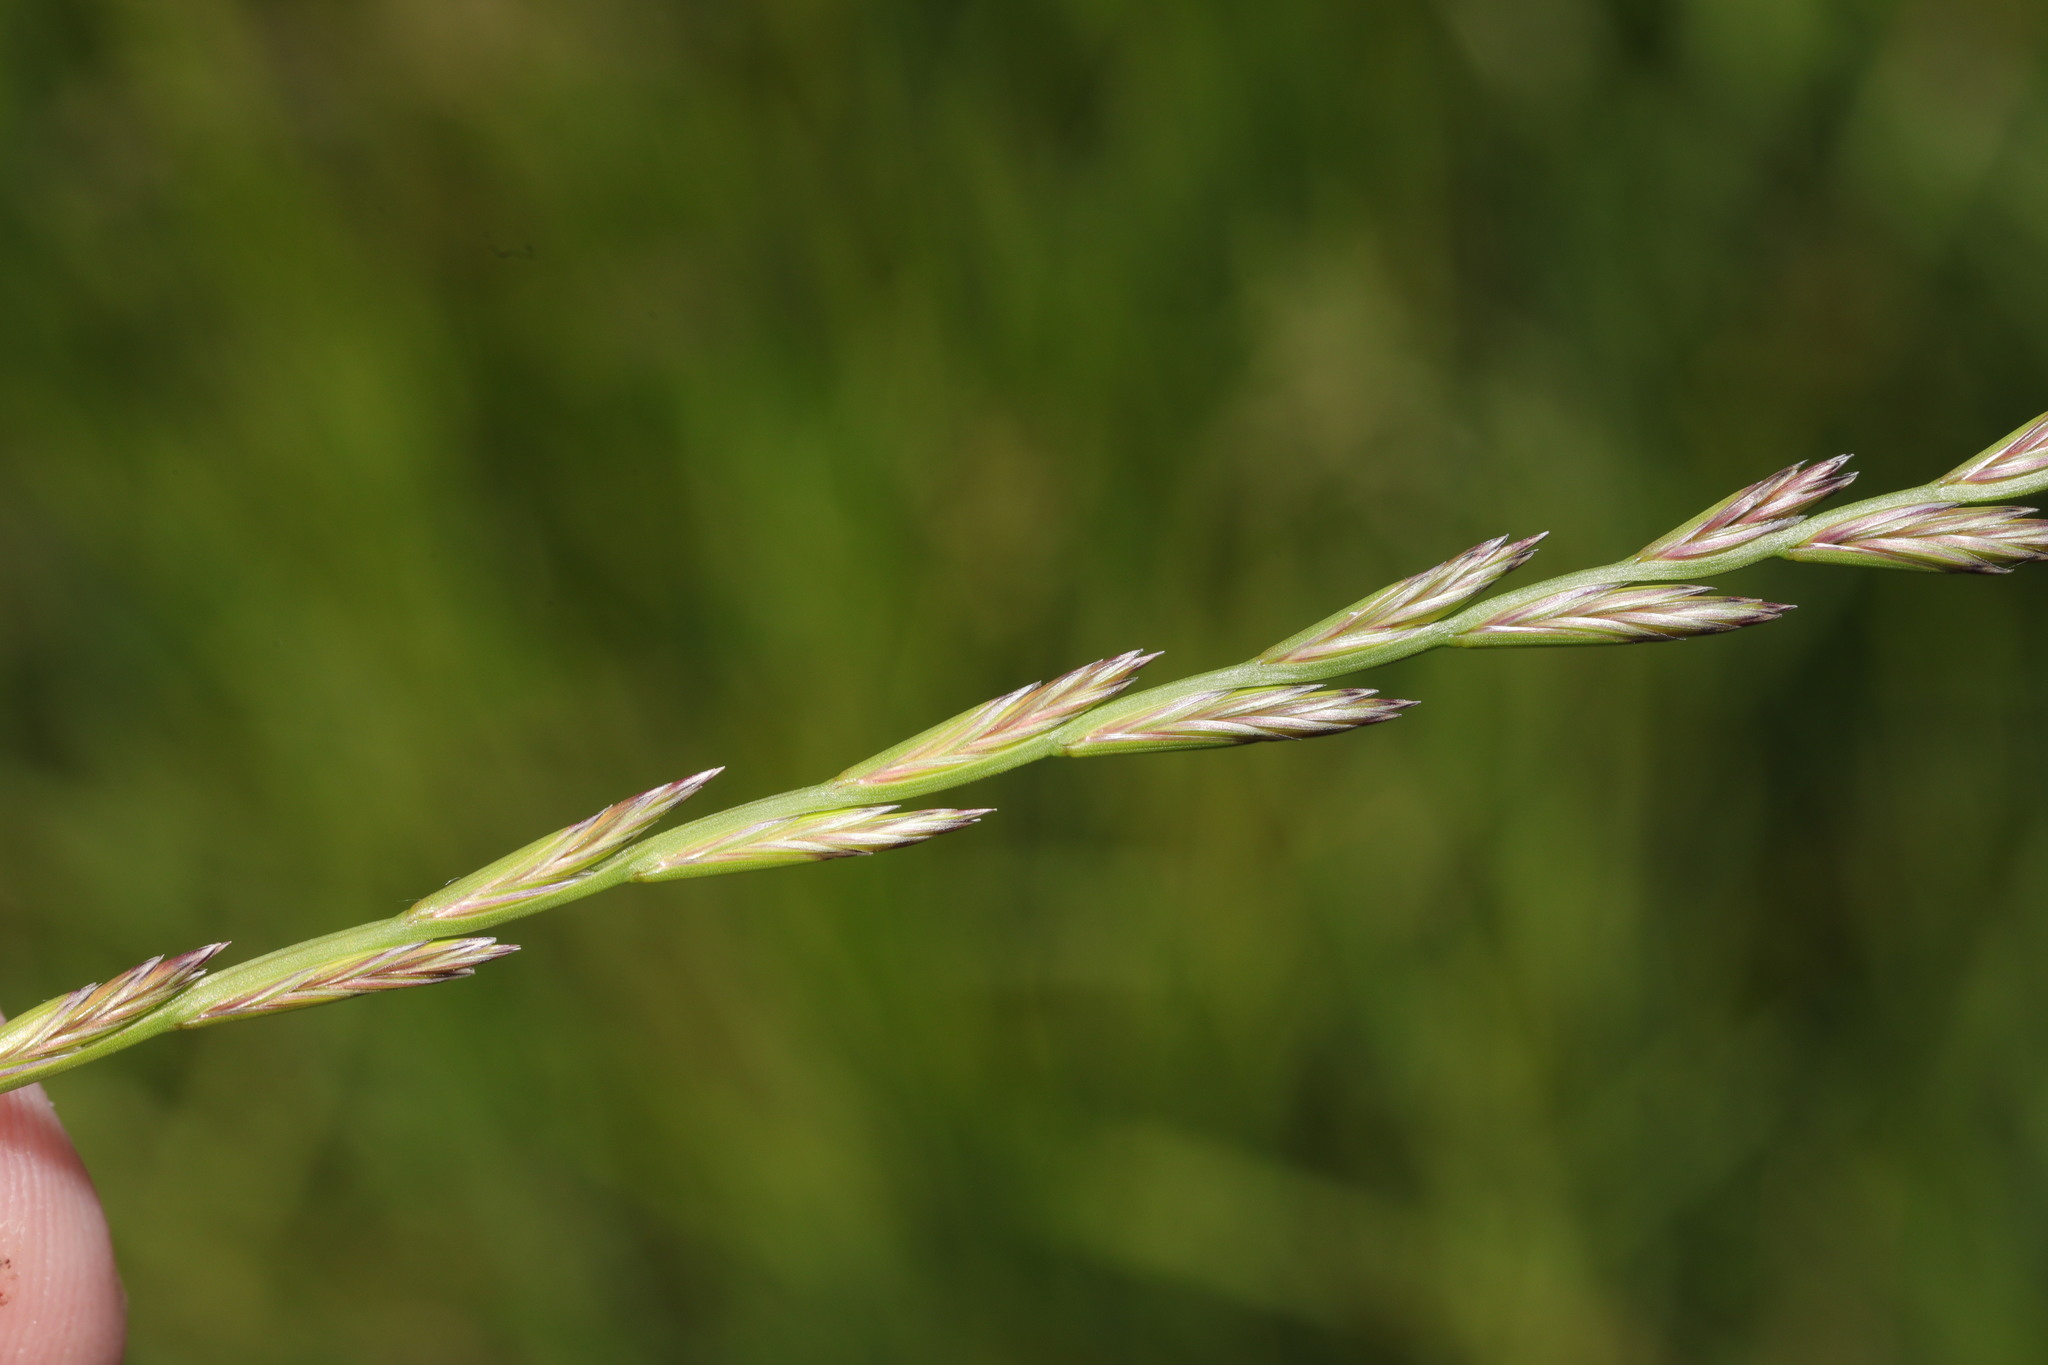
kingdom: Plantae
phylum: Tracheophyta
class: Liliopsida
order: Poales
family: Poaceae
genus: Lolium
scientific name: Lolium perenne
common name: Perennial ryegrass
